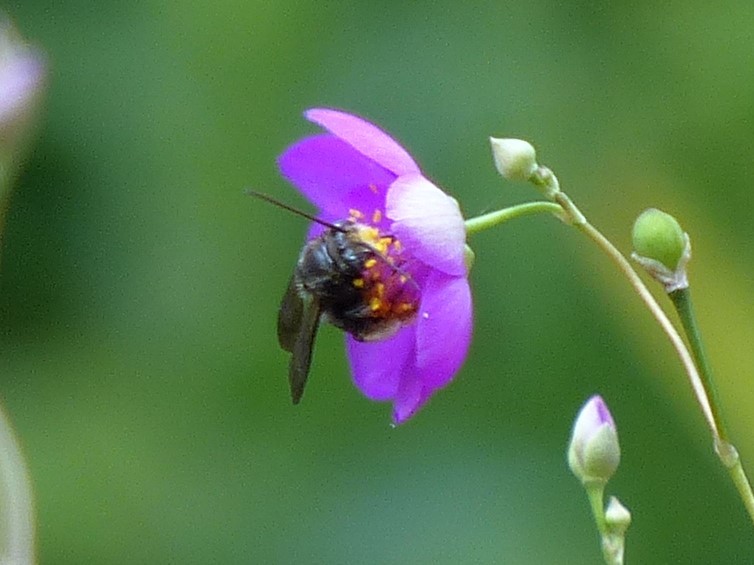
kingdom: Animalia
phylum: Arthropoda
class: Insecta
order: Hymenoptera
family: Apidae
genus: Melissodes
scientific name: Melissodes bimaculatus
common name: Two-spotted long-horned bee
